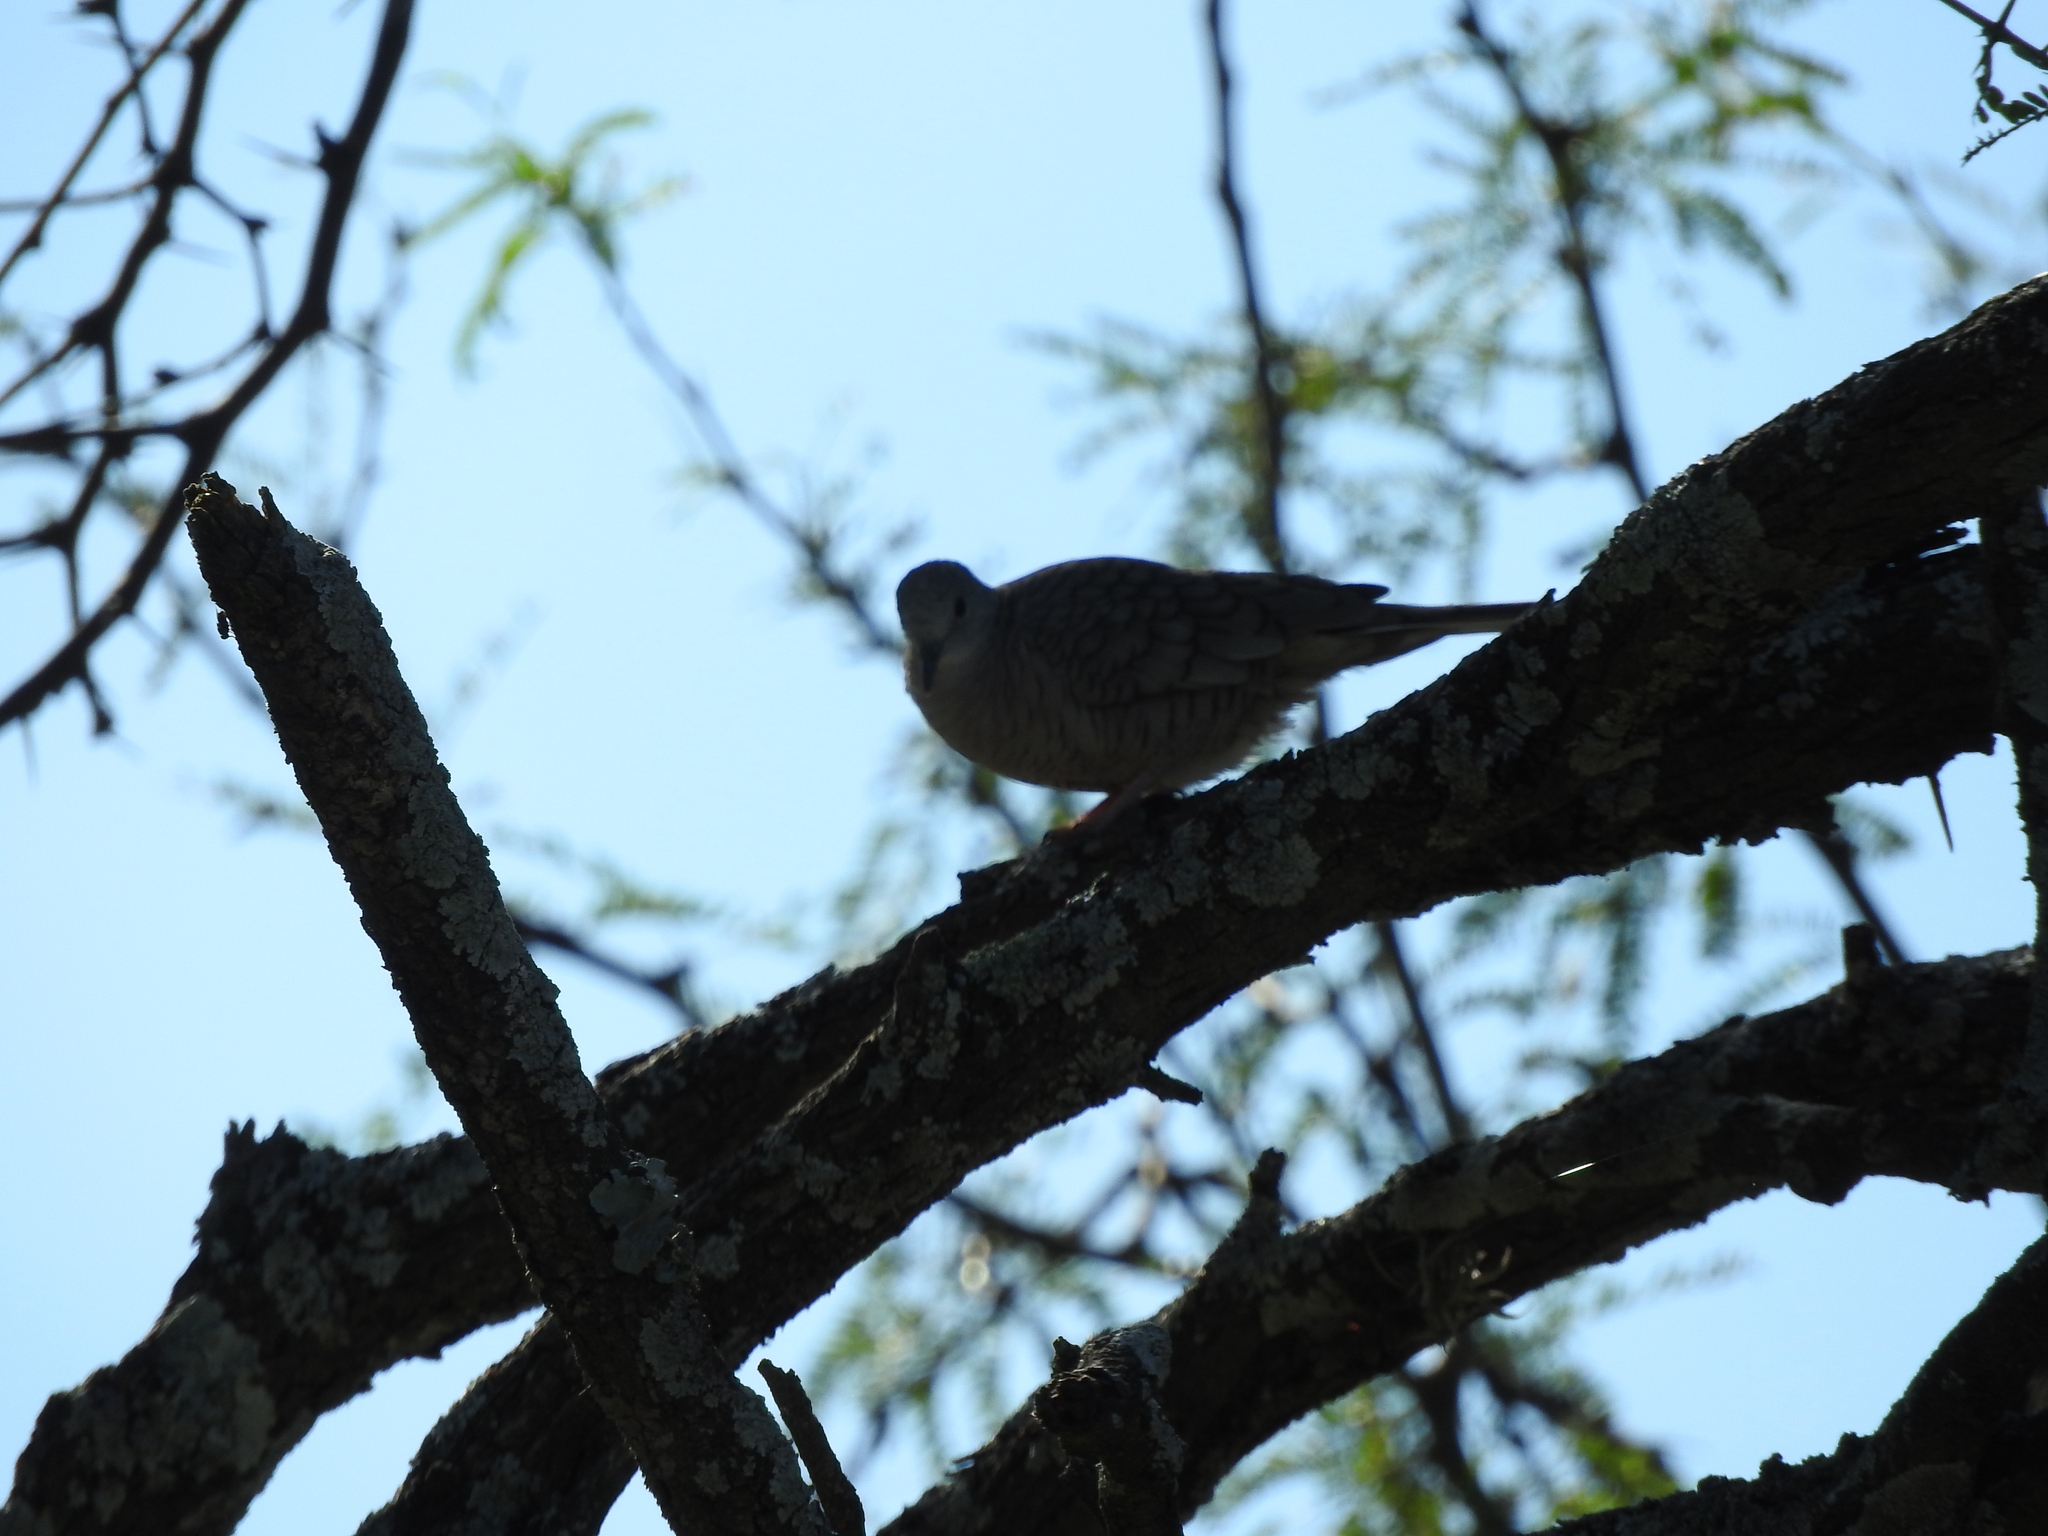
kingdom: Animalia
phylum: Chordata
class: Aves
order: Columbiformes
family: Columbidae
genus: Columbina
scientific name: Columbina inca
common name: Inca dove
